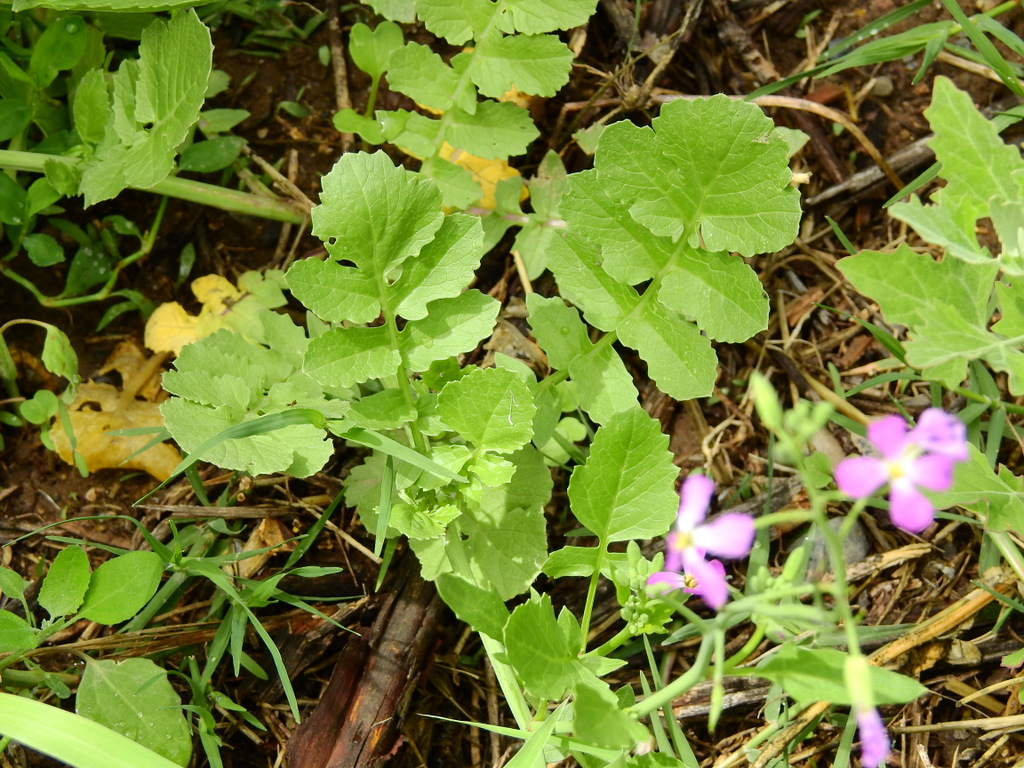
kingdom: Plantae
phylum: Tracheophyta
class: Magnoliopsida
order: Brassicales
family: Brassicaceae
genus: Raphanus
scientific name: Raphanus sativus
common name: Cultivated radish
